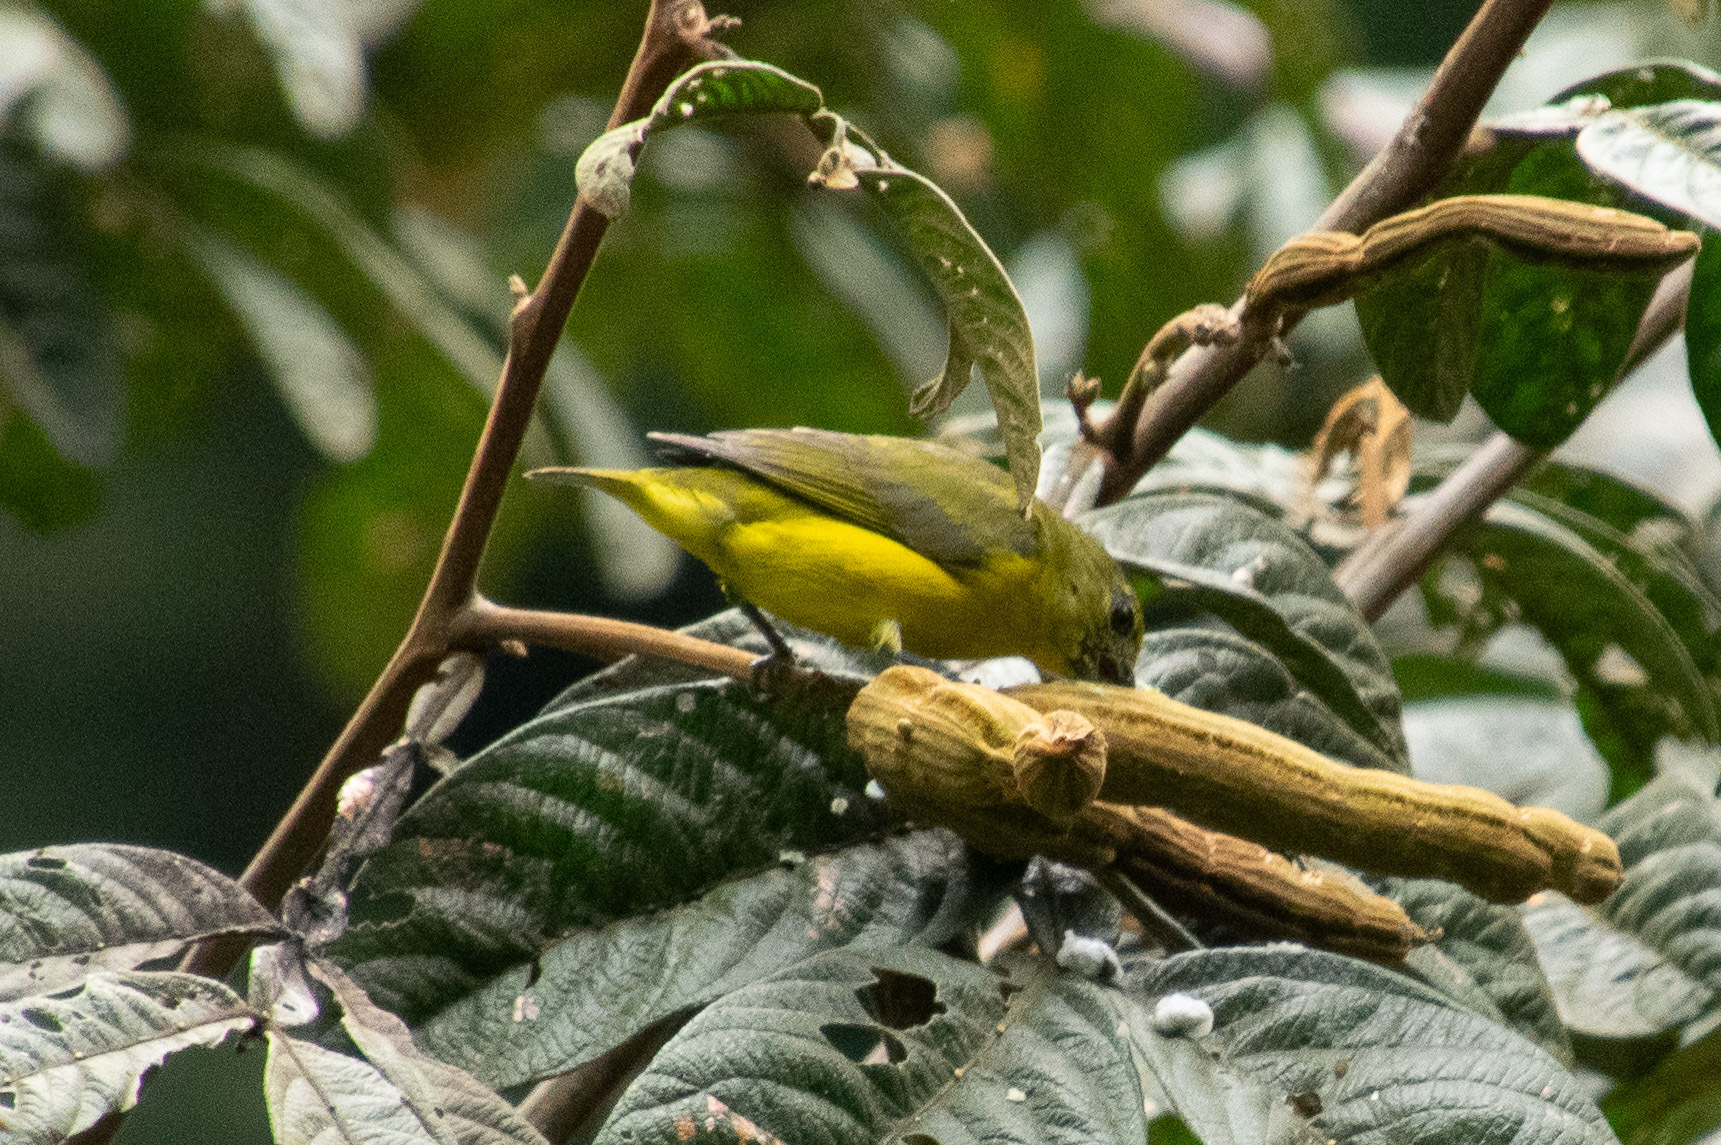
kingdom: Animalia
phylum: Chordata
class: Aves
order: Passeriformes
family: Fringillidae
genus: Euphonia
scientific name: Euphonia laniirostris
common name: Thick-billed euphonia
